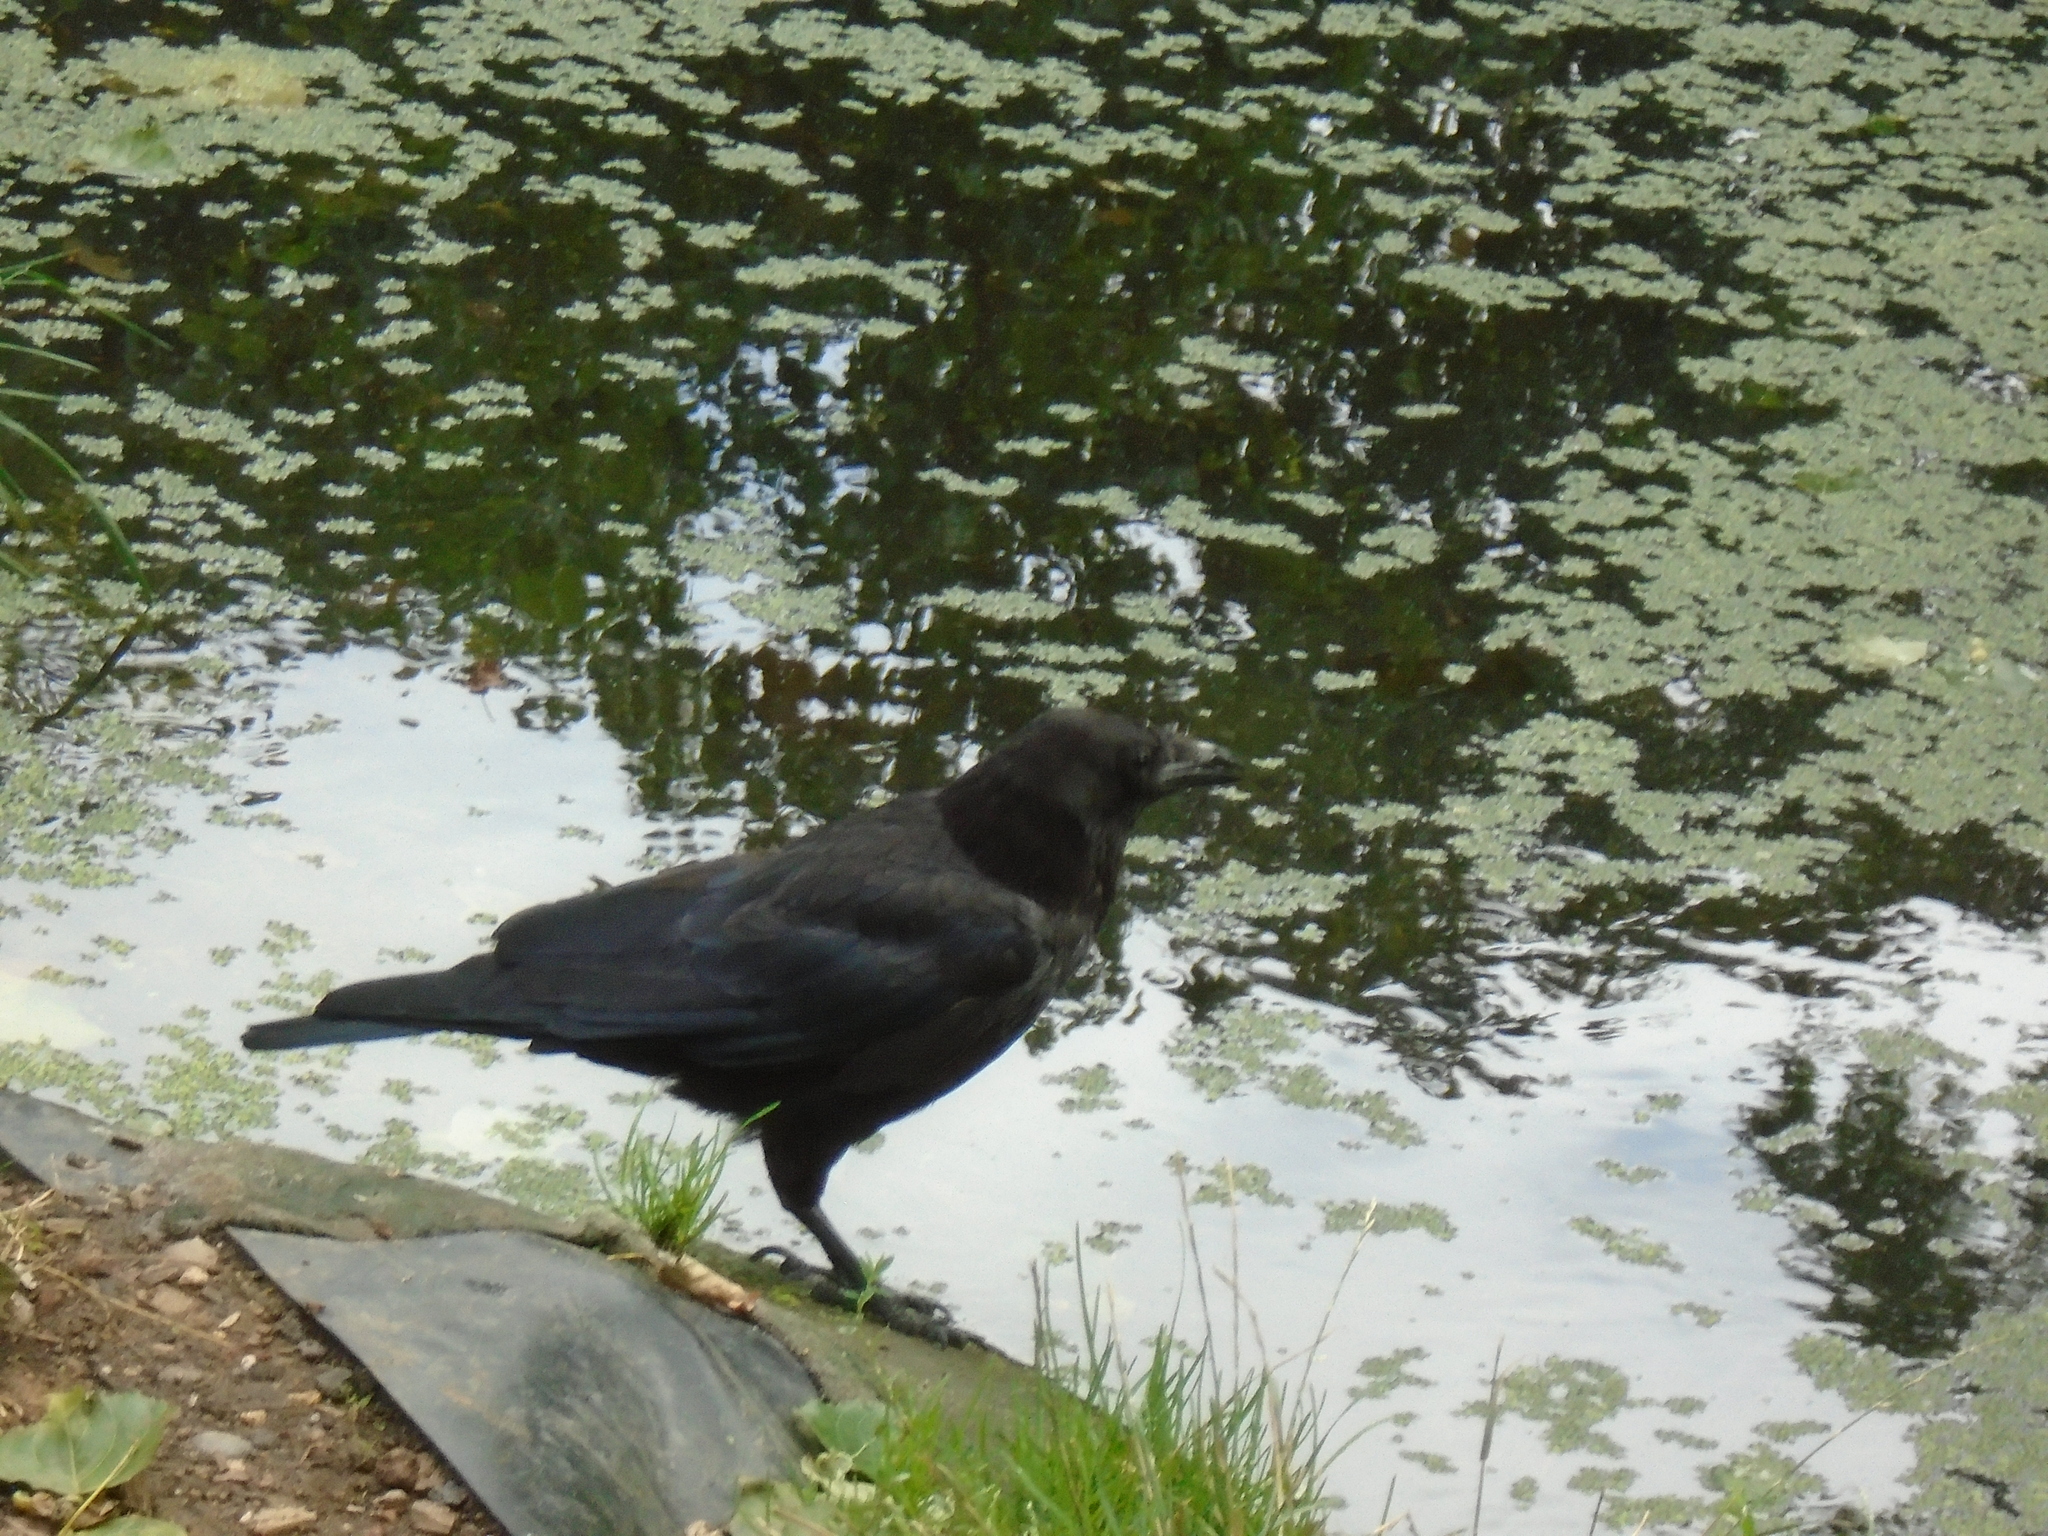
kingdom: Animalia
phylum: Chordata
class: Aves
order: Passeriformes
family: Corvidae
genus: Corvus
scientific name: Corvus corone
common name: Carrion crow
